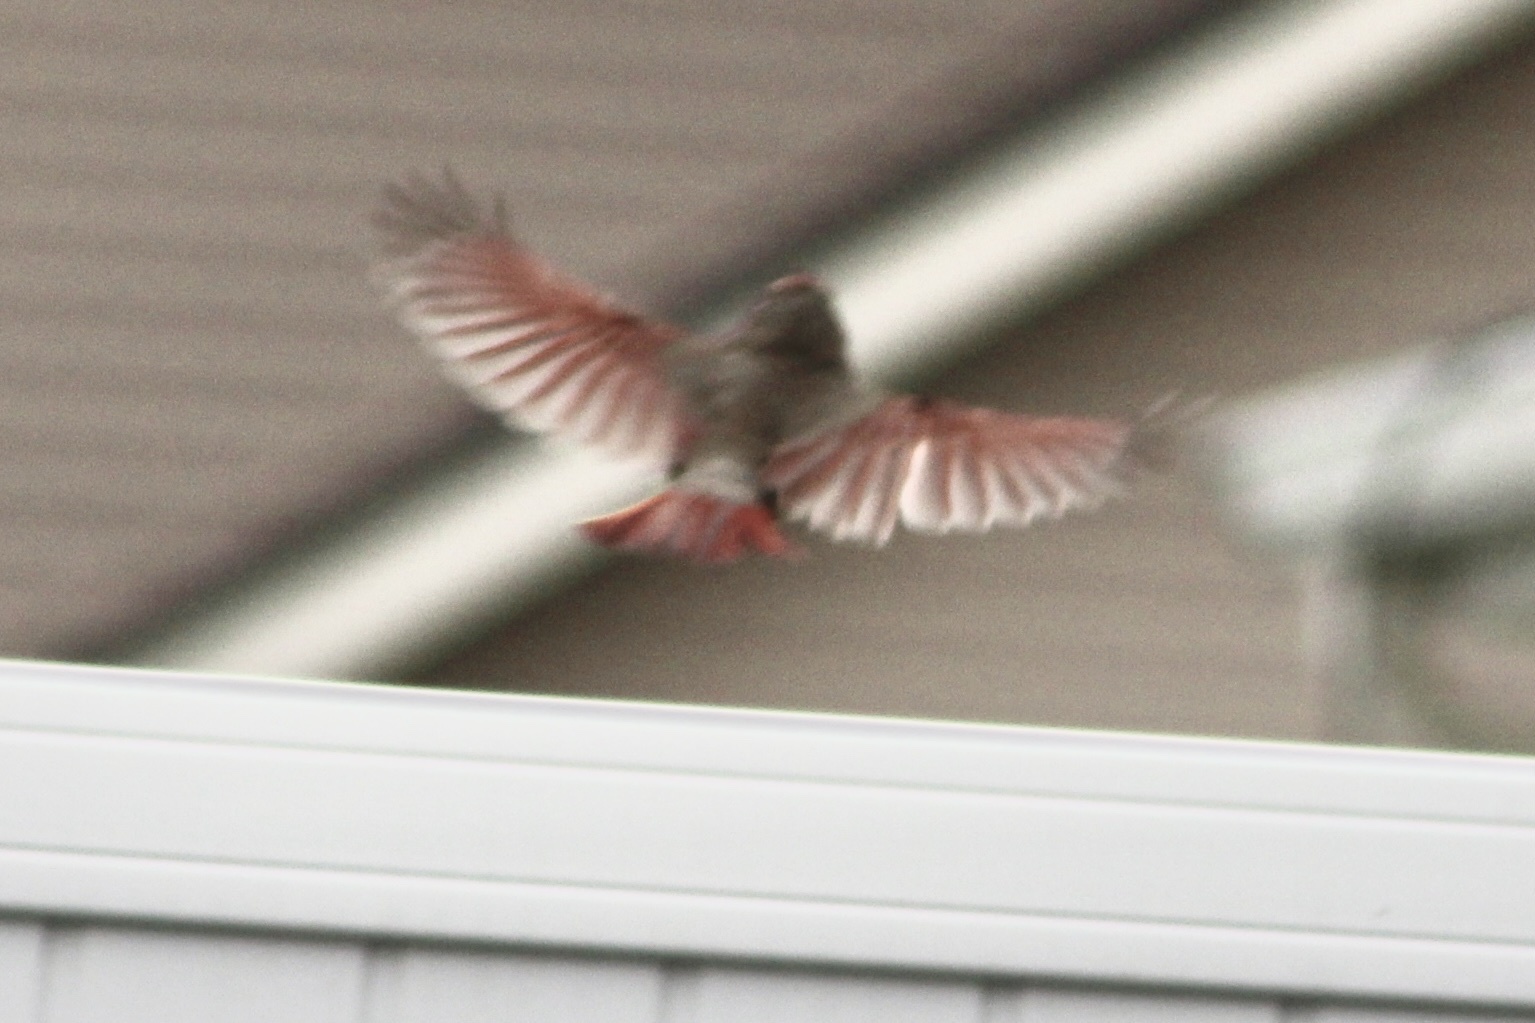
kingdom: Animalia
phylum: Chordata
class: Aves
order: Passeriformes
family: Cardinalidae
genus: Cardinalis
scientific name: Cardinalis cardinalis
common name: Northern cardinal
